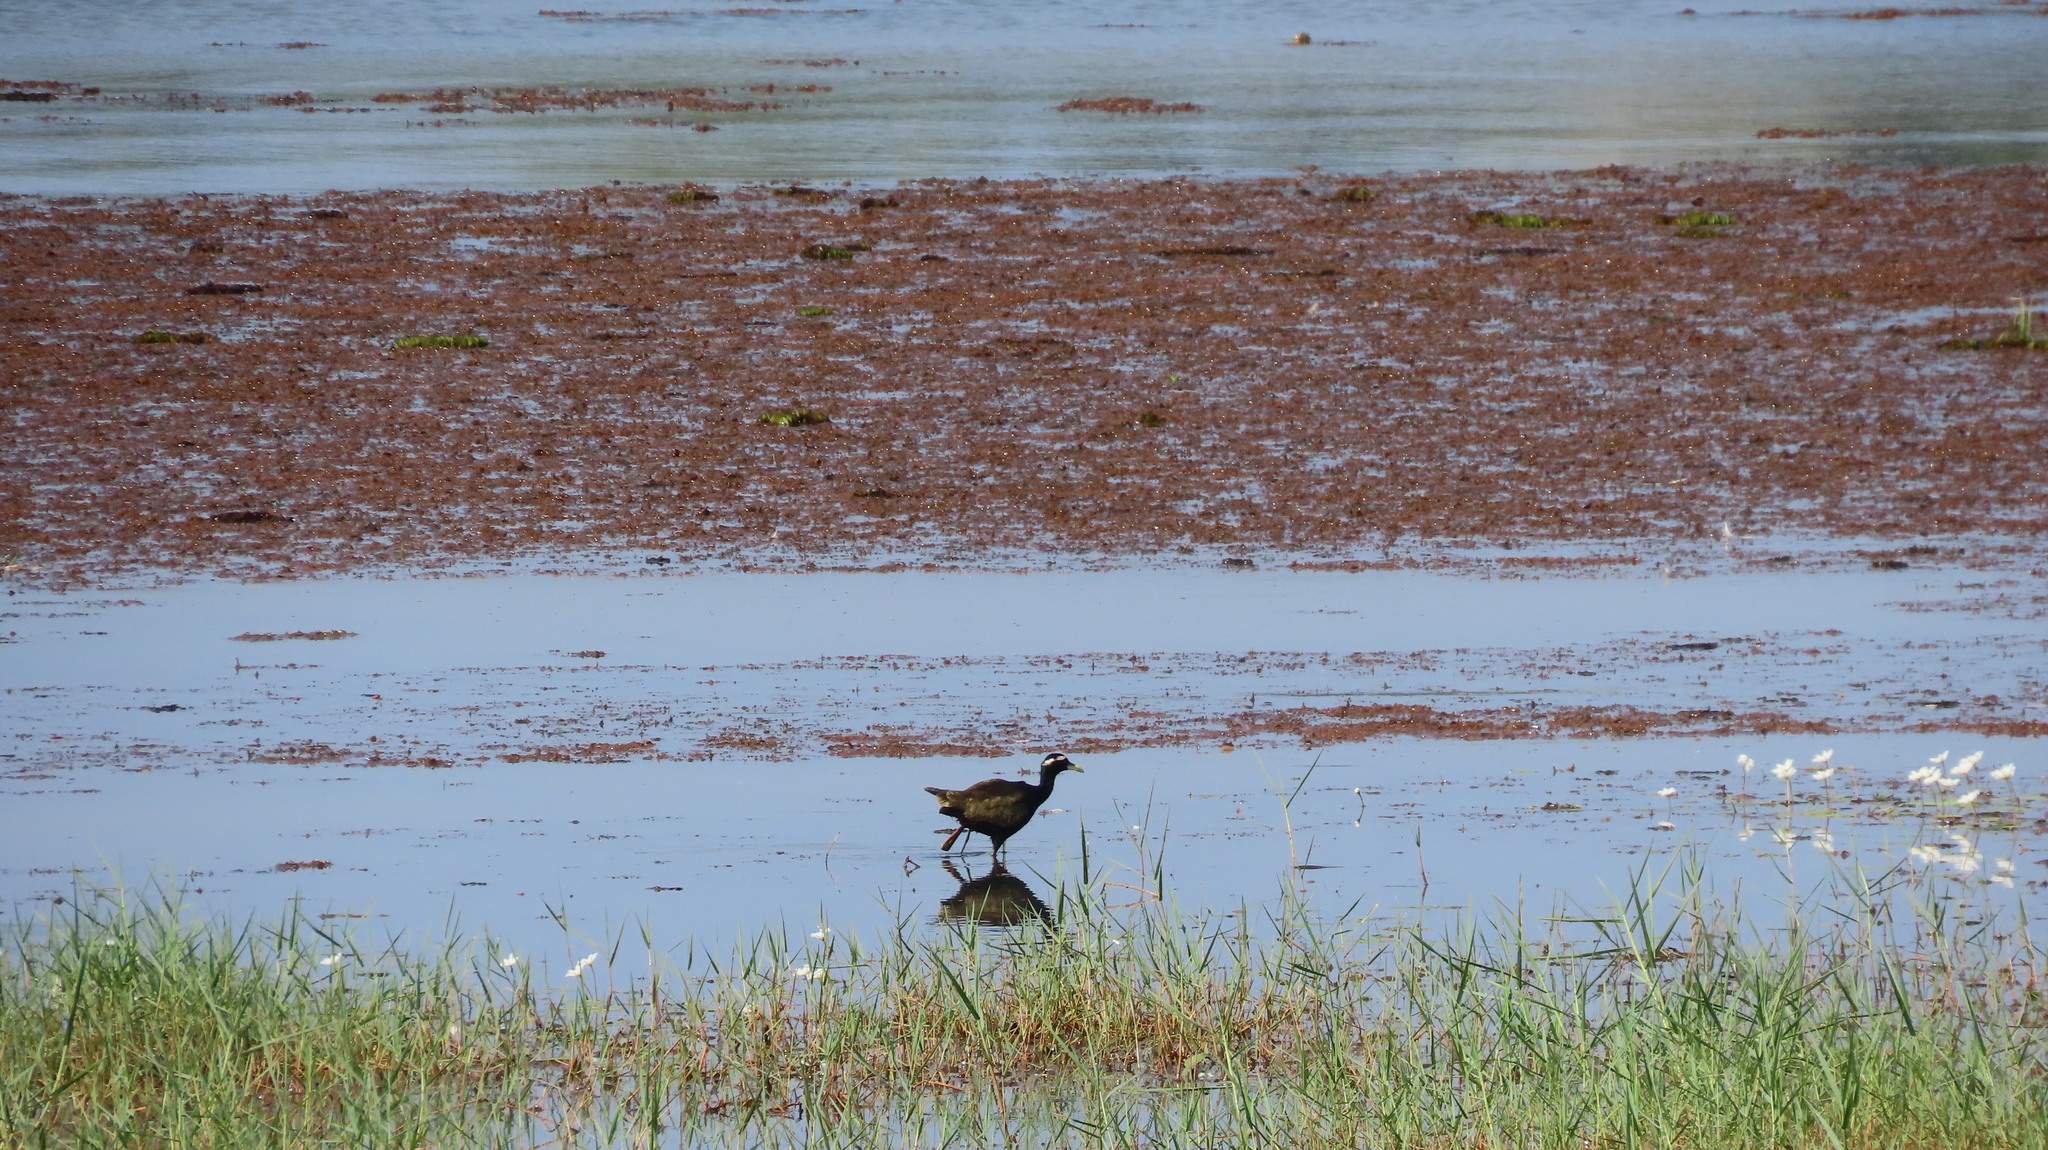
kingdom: Animalia
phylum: Chordata
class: Aves
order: Charadriiformes
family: Jacanidae
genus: Metopidius
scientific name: Metopidius indicus
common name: Bronze-winged jacana
